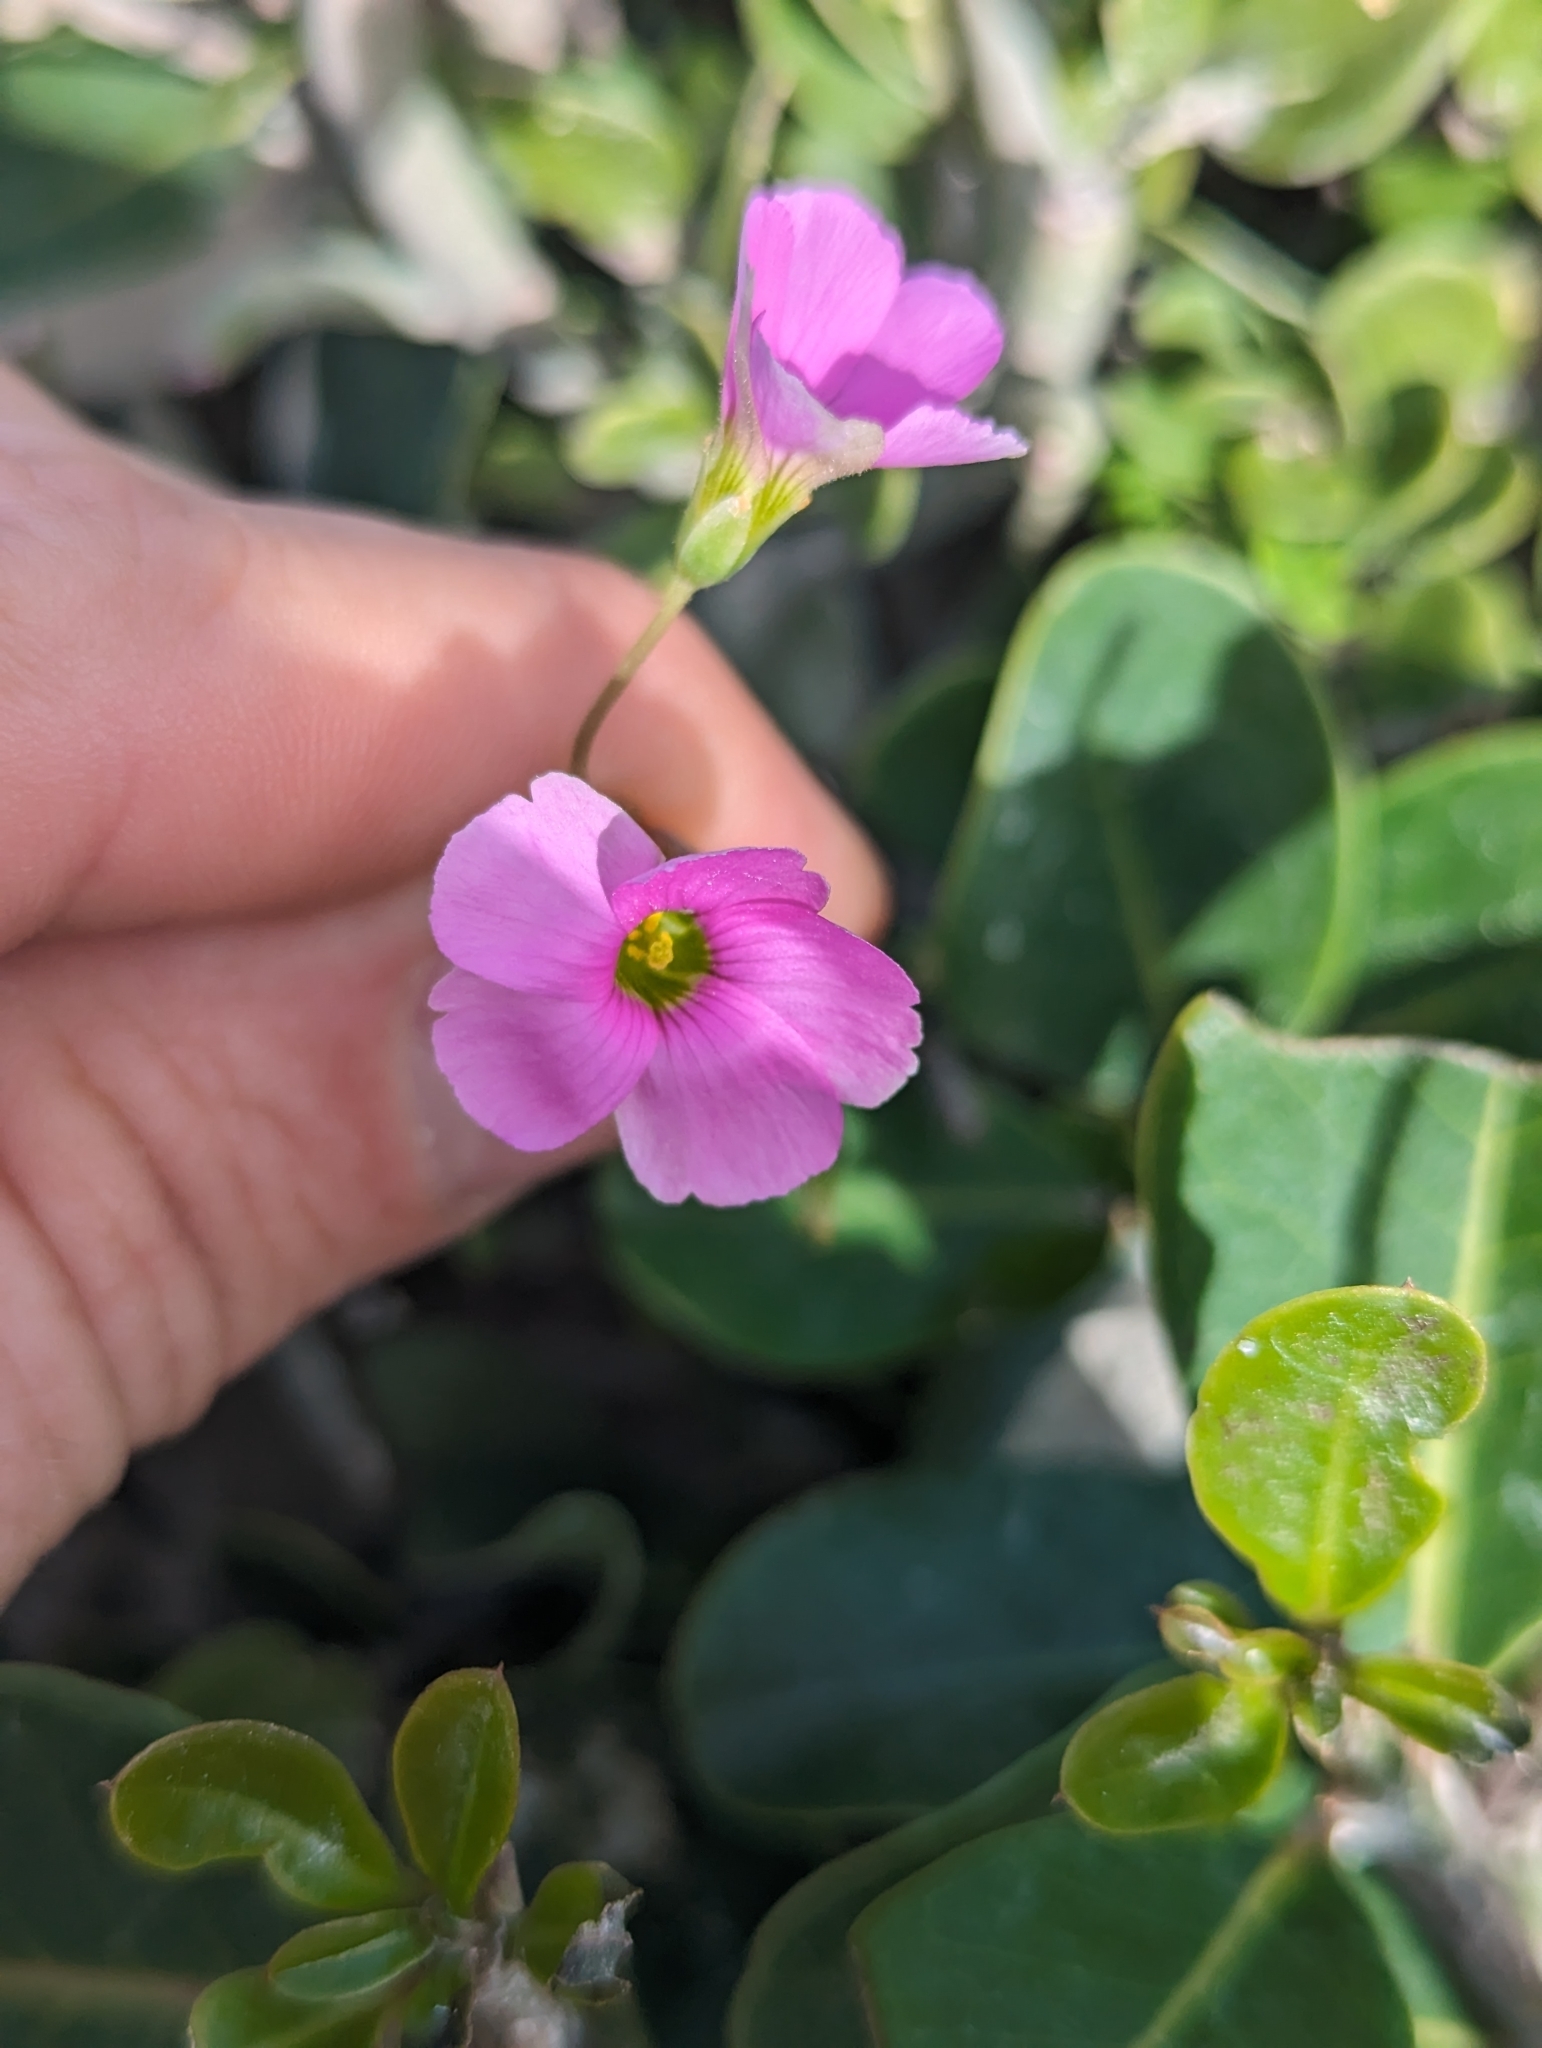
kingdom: Plantae
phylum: Tracheophyta
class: Magnoliopsida
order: Oxalidales
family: Oxalidaceae
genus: Oxalis
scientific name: Oxalis stellata
